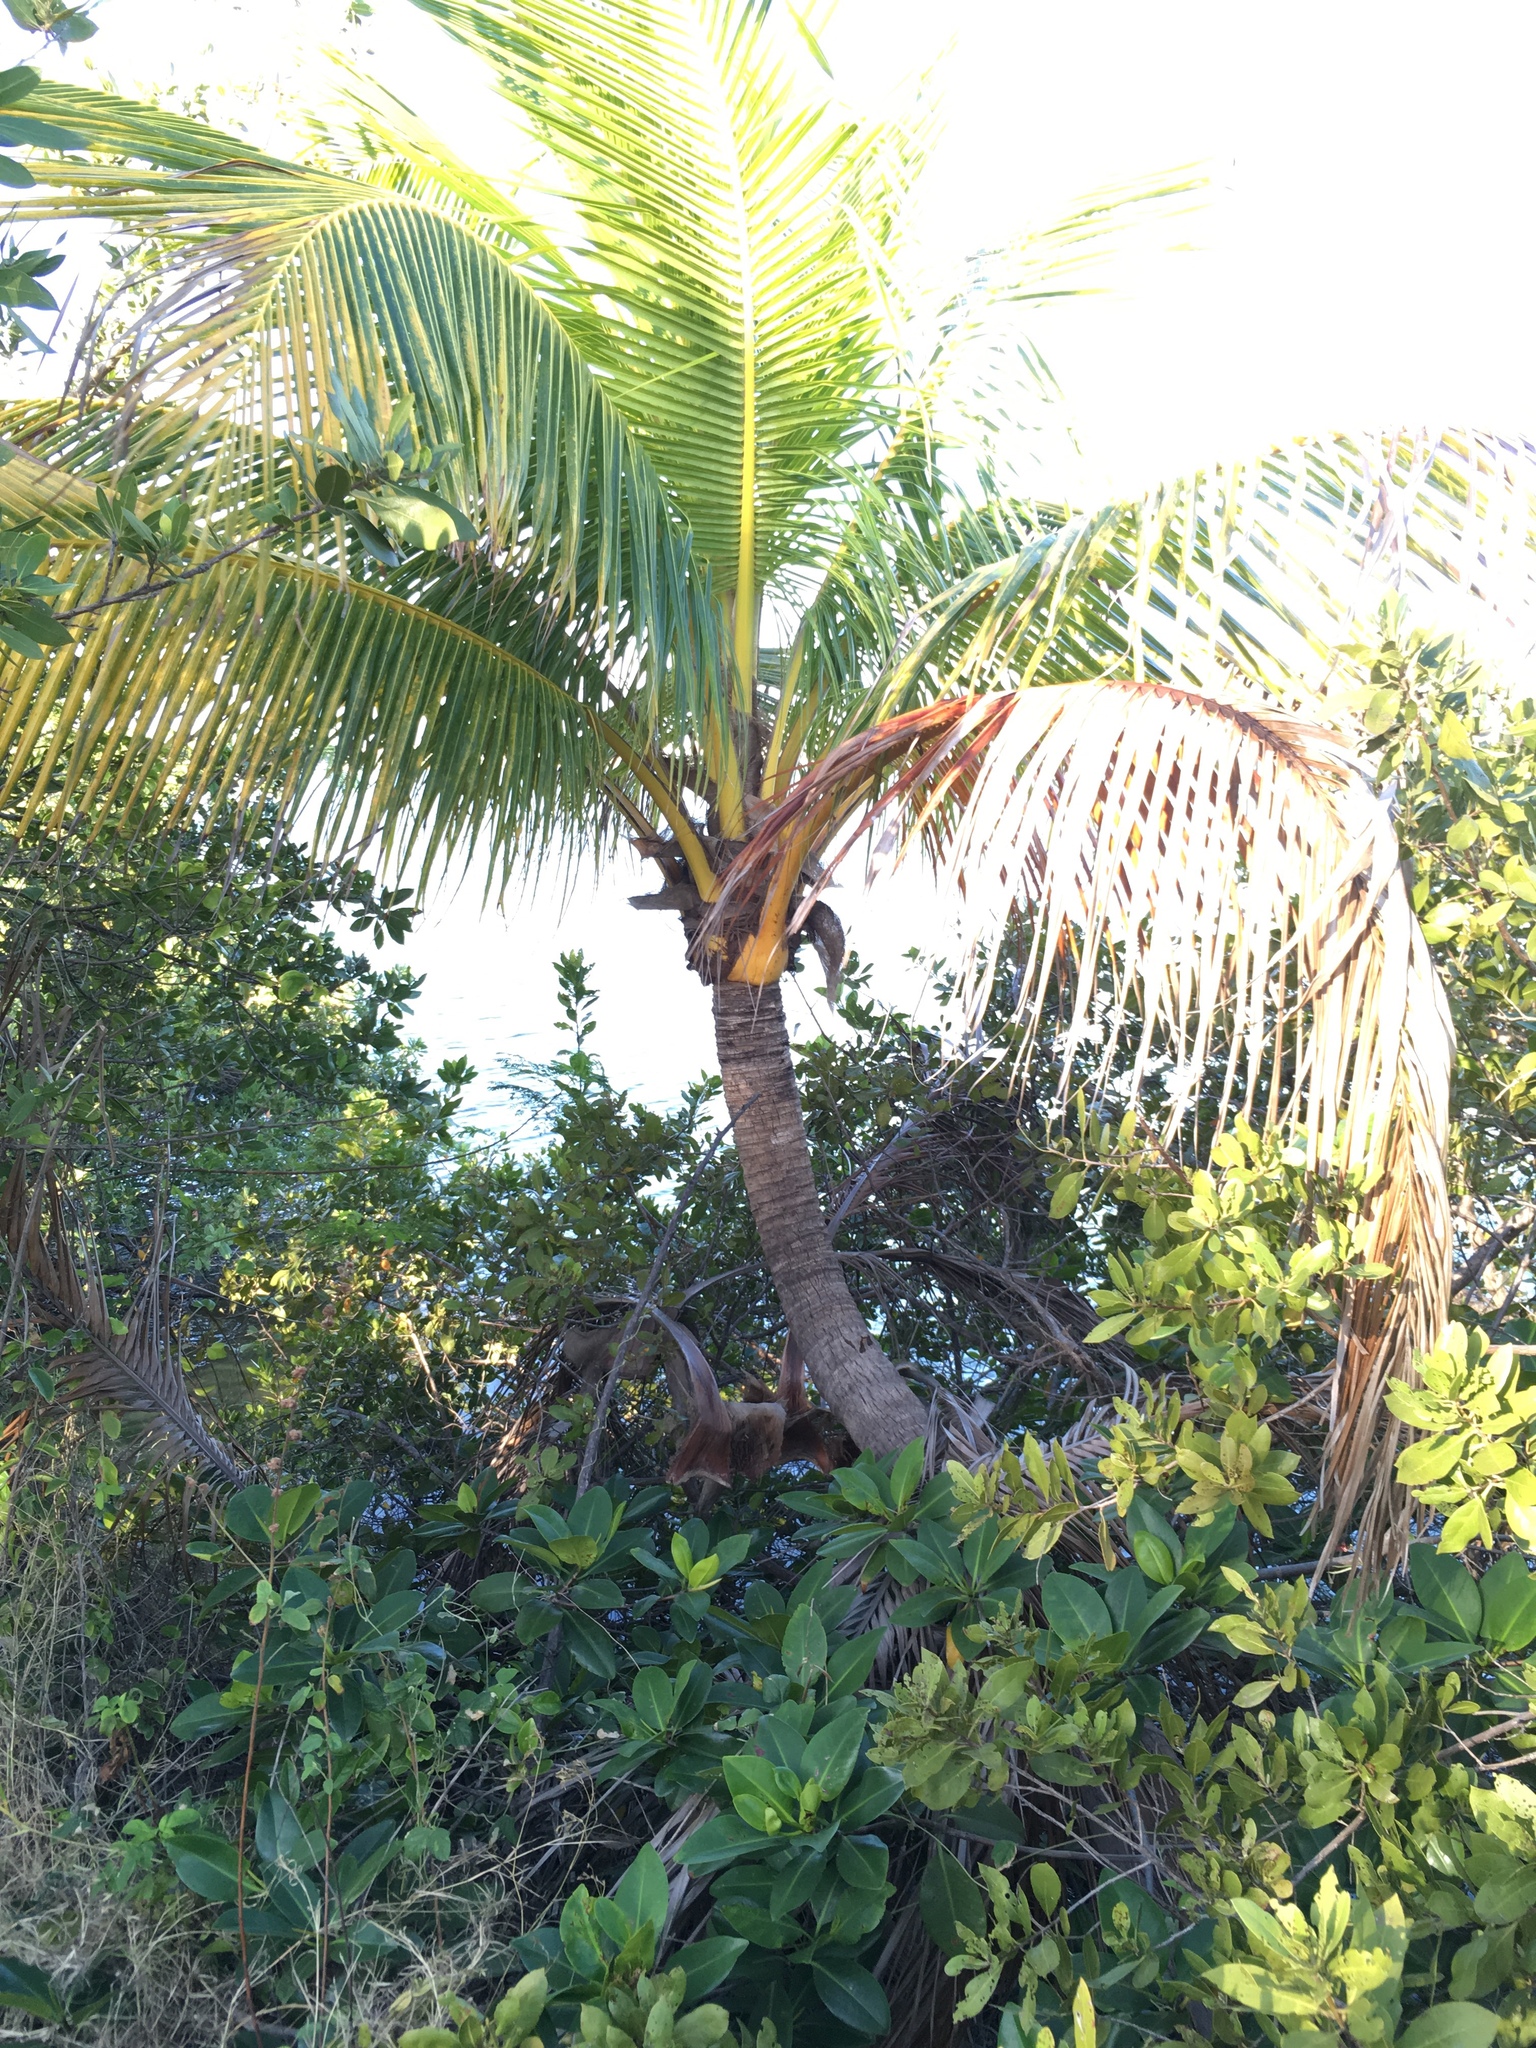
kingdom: Plantae
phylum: Tracheophyta
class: Liliopsida
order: Arecales
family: Arecaceae
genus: Cocos
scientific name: Cocos nucifera
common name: Coconut palm
